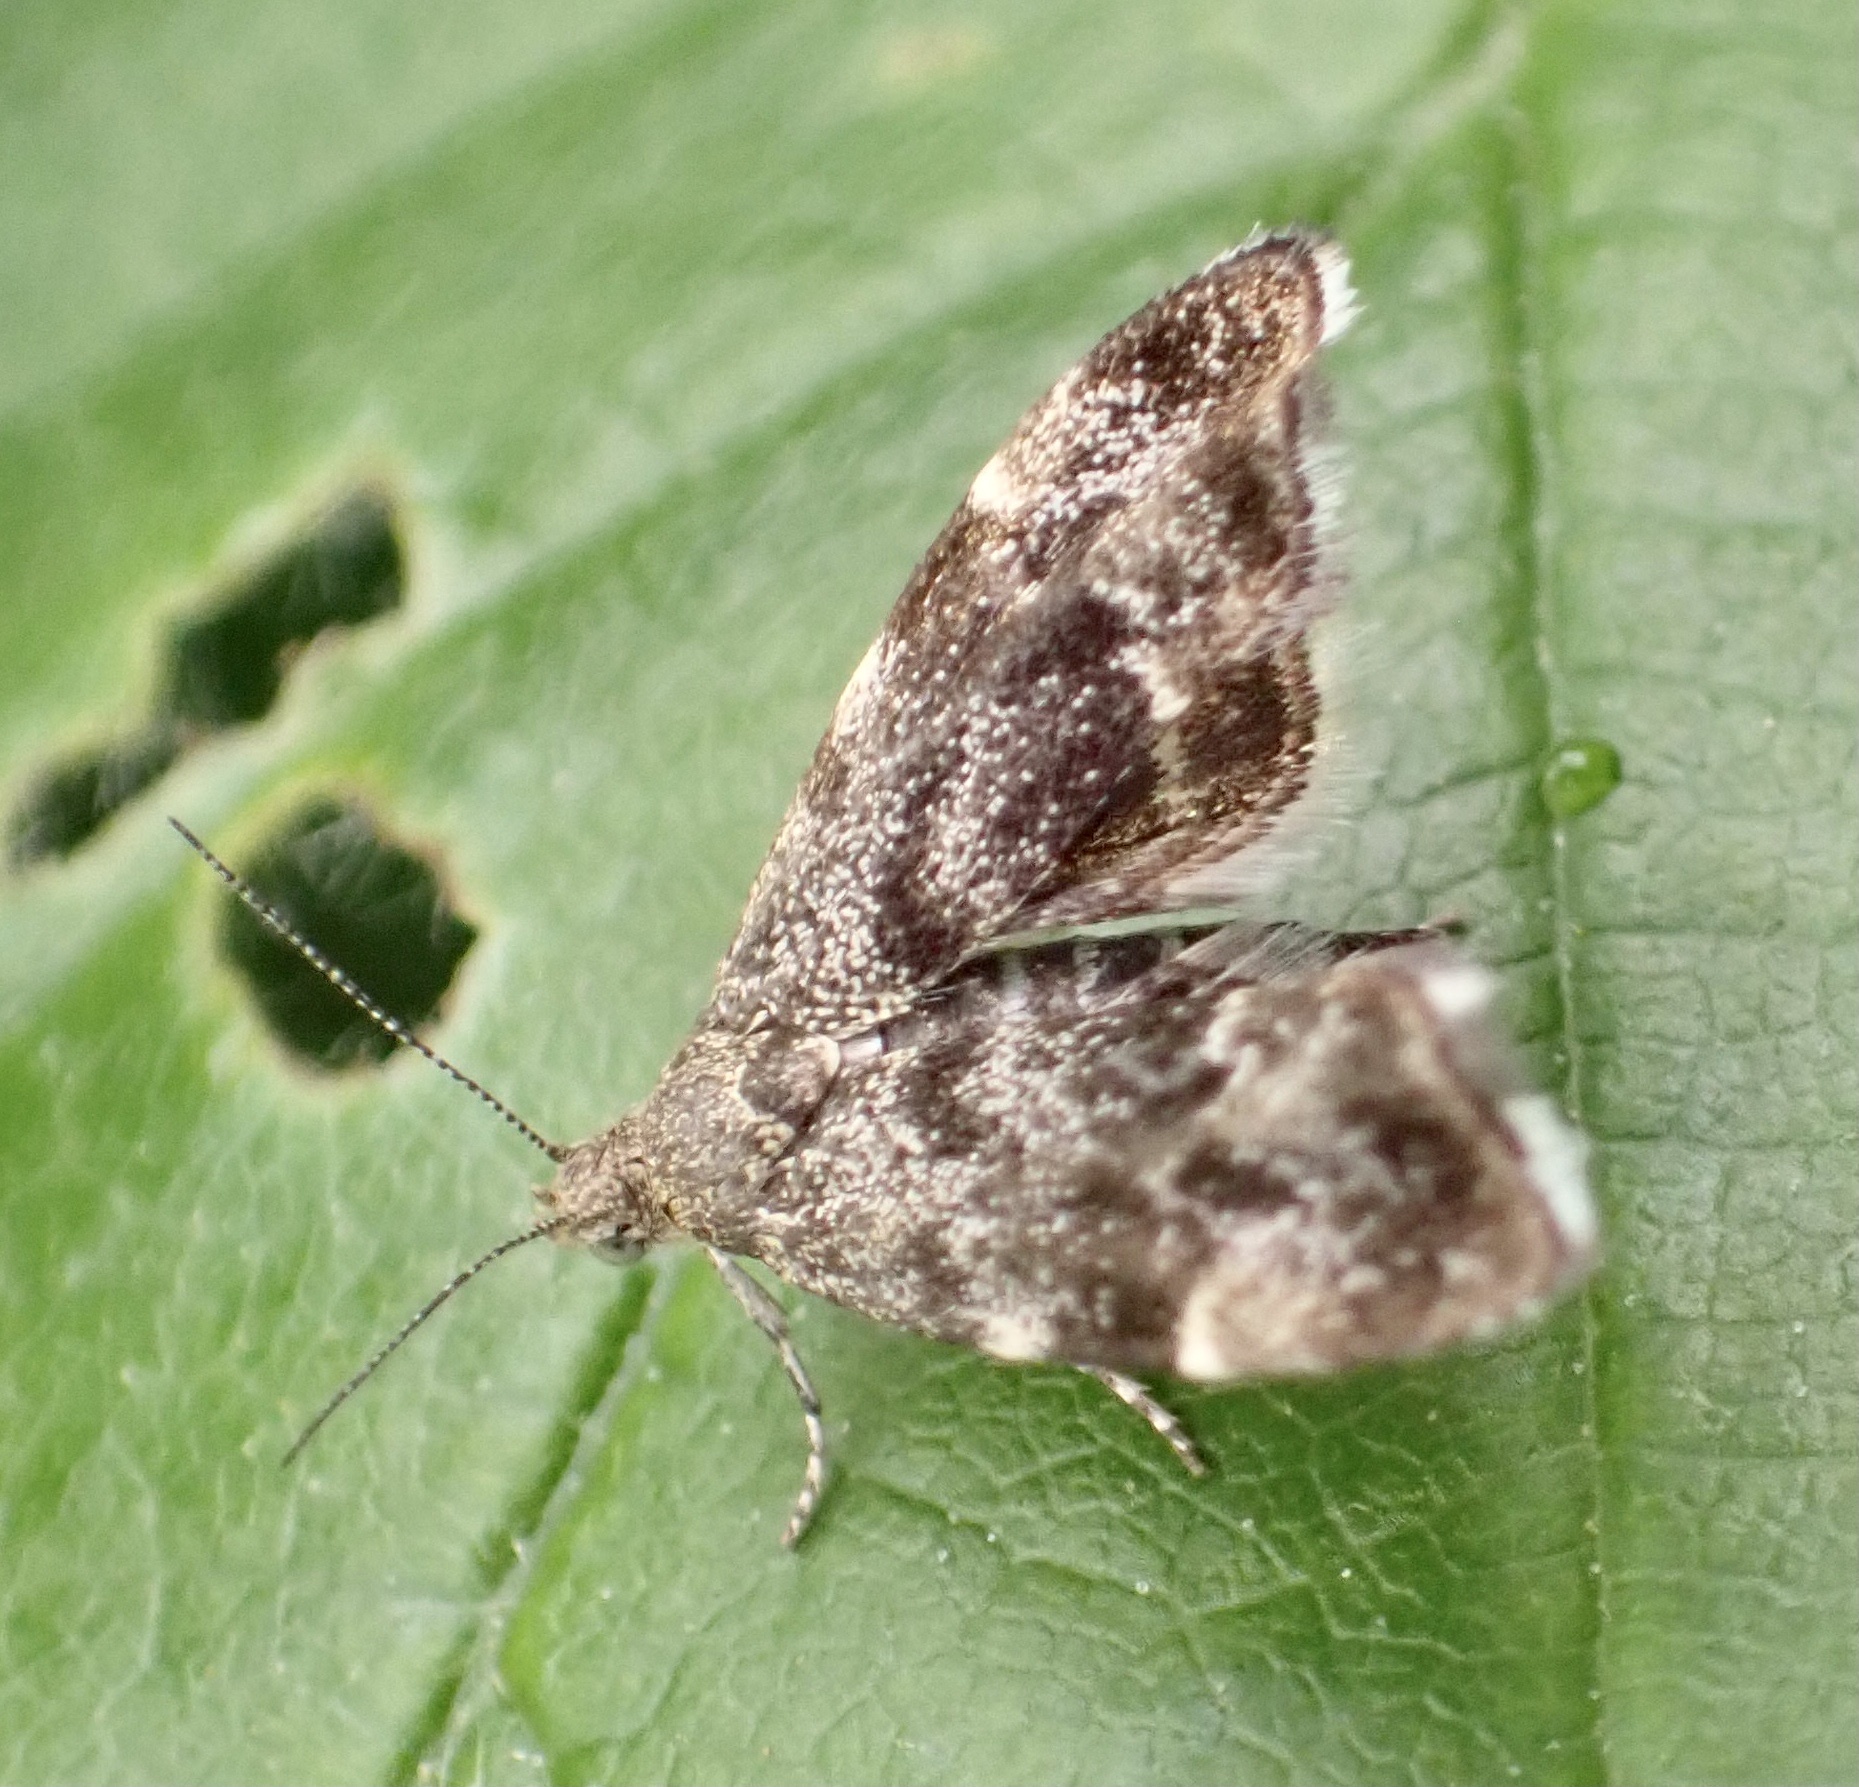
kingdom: Animalia
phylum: Arthropoda
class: Insecta
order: Lepidoptera
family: Choreutidae
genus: Anthophila
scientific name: Anthophila fabriciana
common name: Nettle-tap
